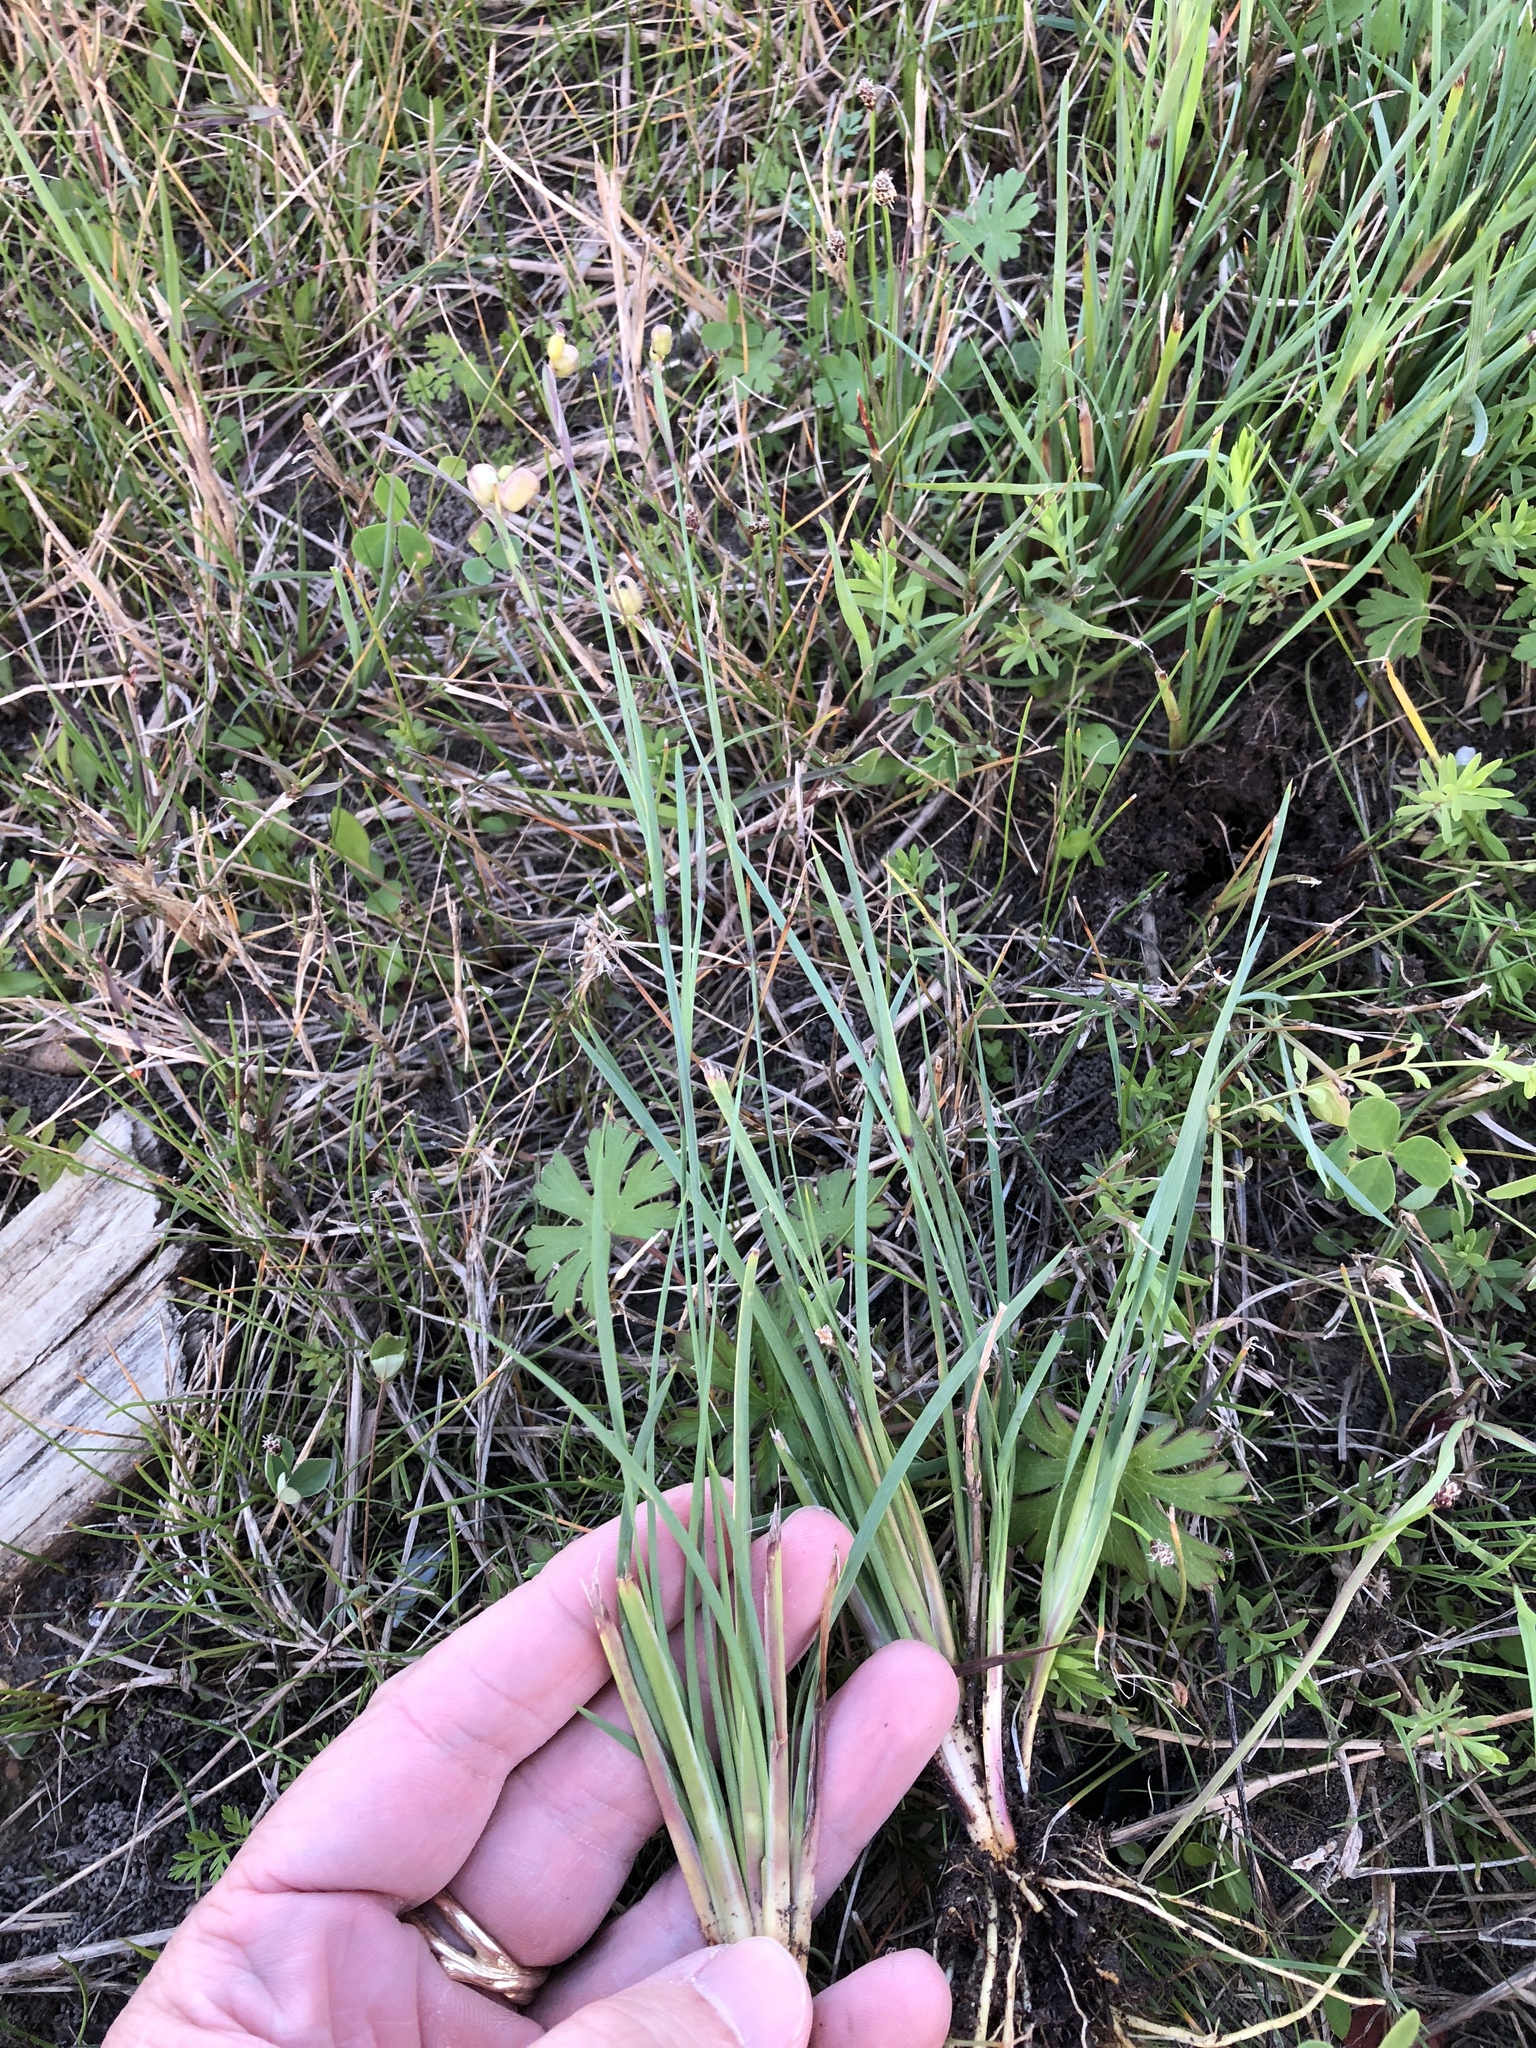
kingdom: Plantae
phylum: Tracheophyta
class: Liliopsida
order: Asparagales
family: Iridaceae
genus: Sisyrinchium
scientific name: Sisyrinchium biforme
